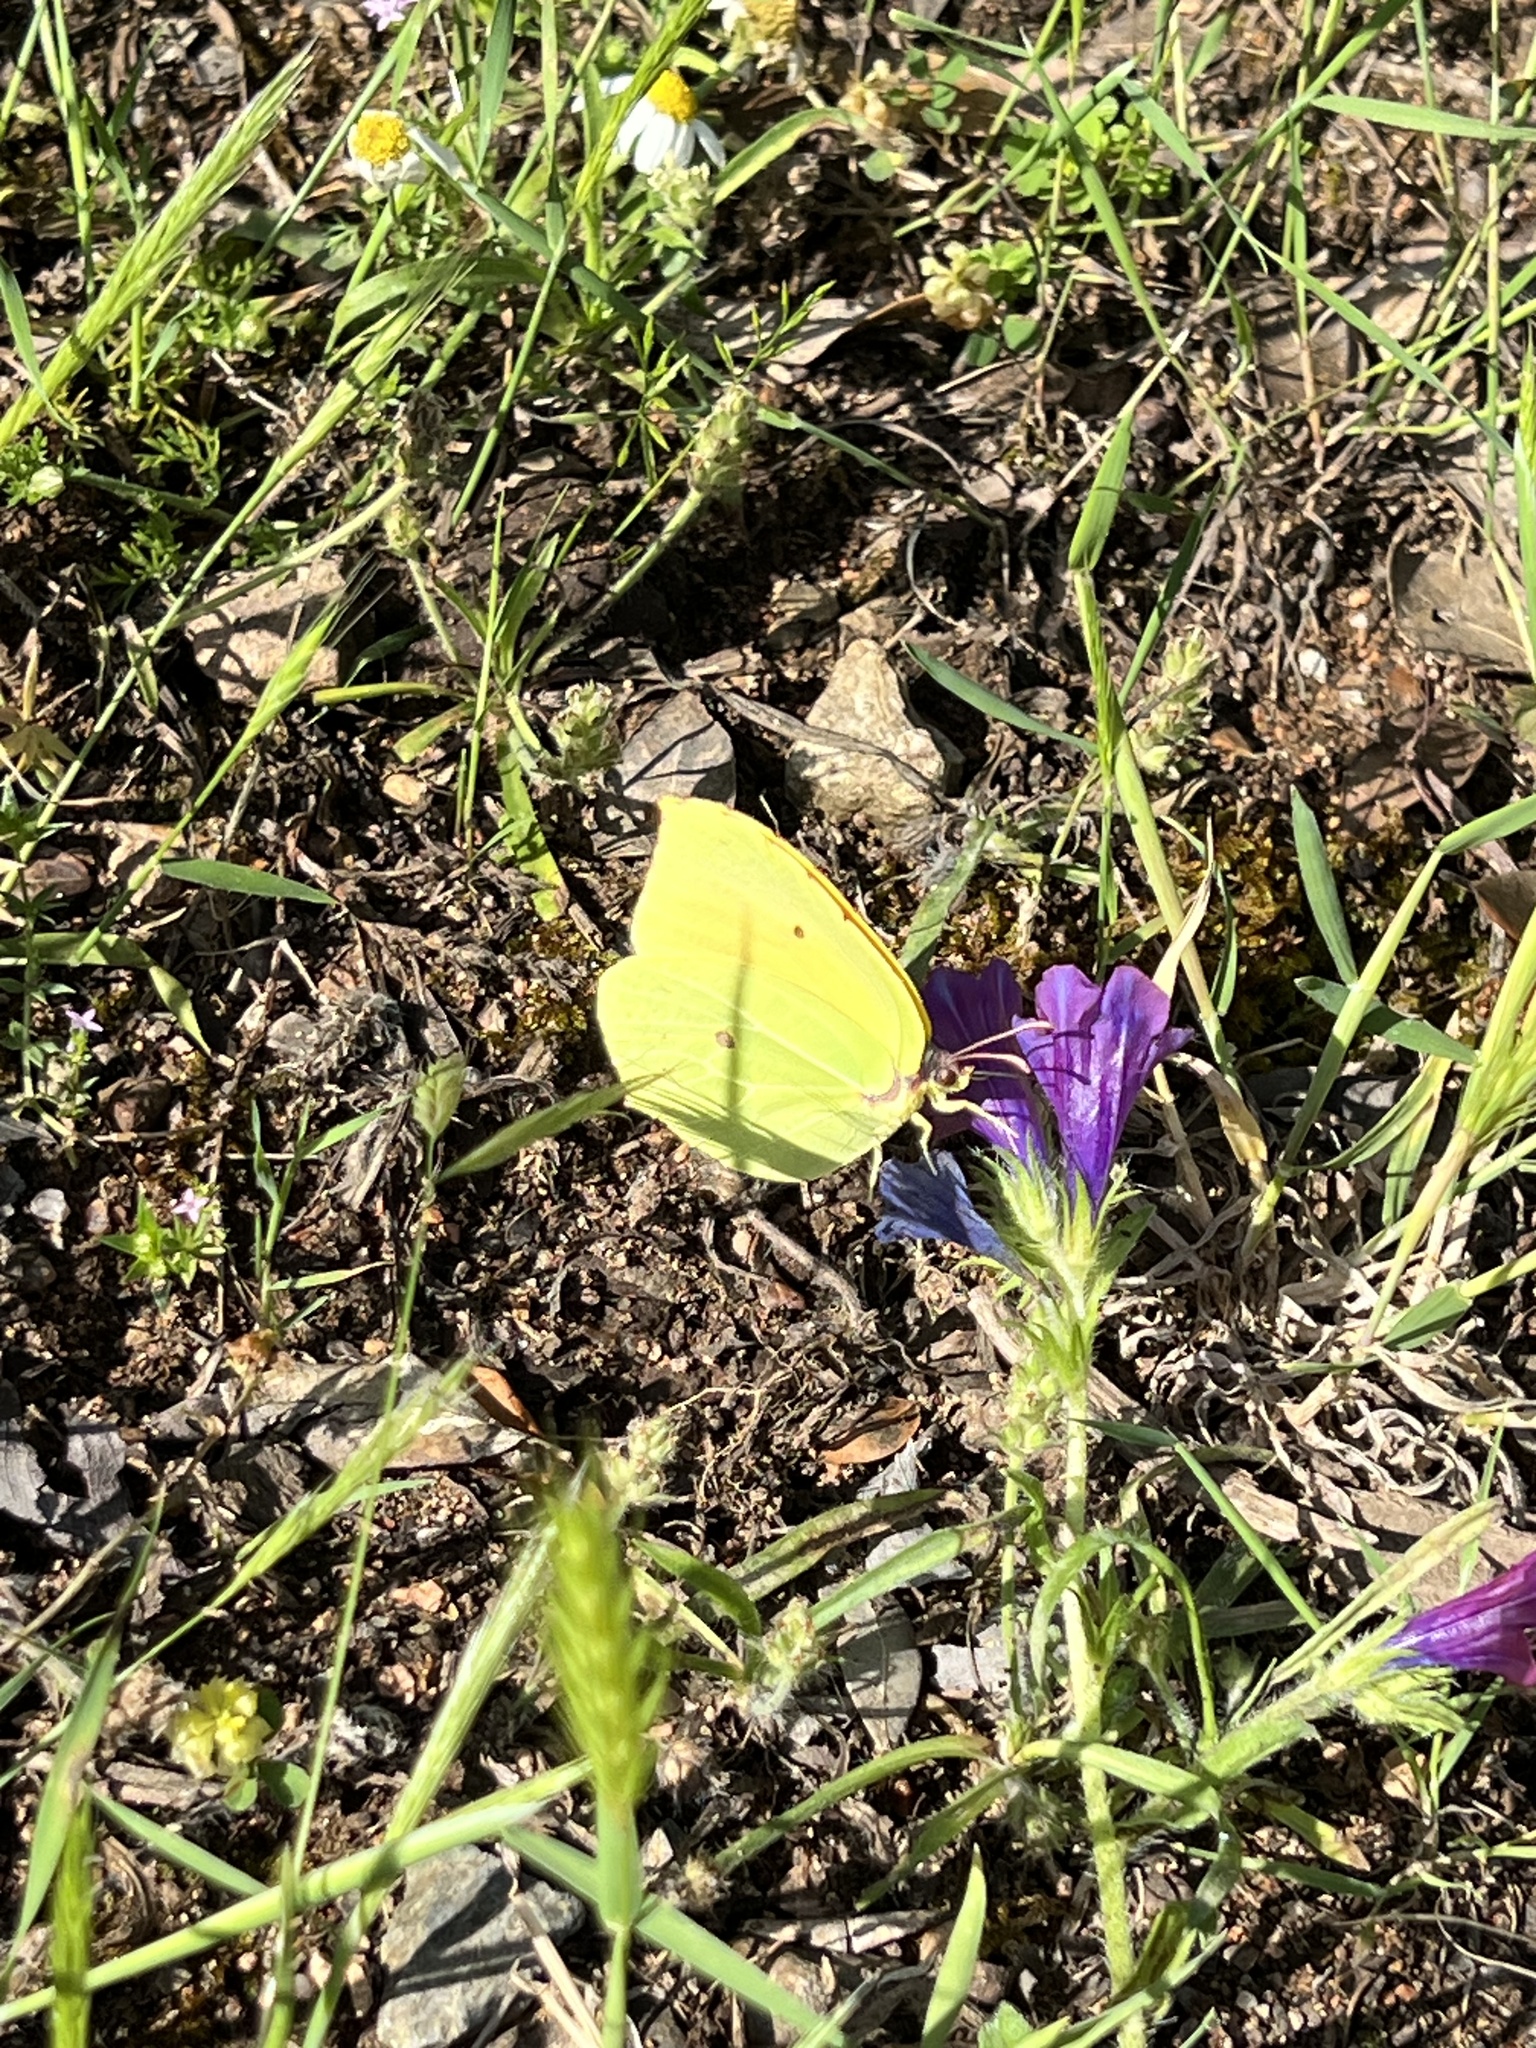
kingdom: Animalia
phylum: Arthropoda
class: Insecta
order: Lepidoptera
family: Pieridae
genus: Gonepteryx
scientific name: Gonepteryx cleopatra
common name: Cleopatra
